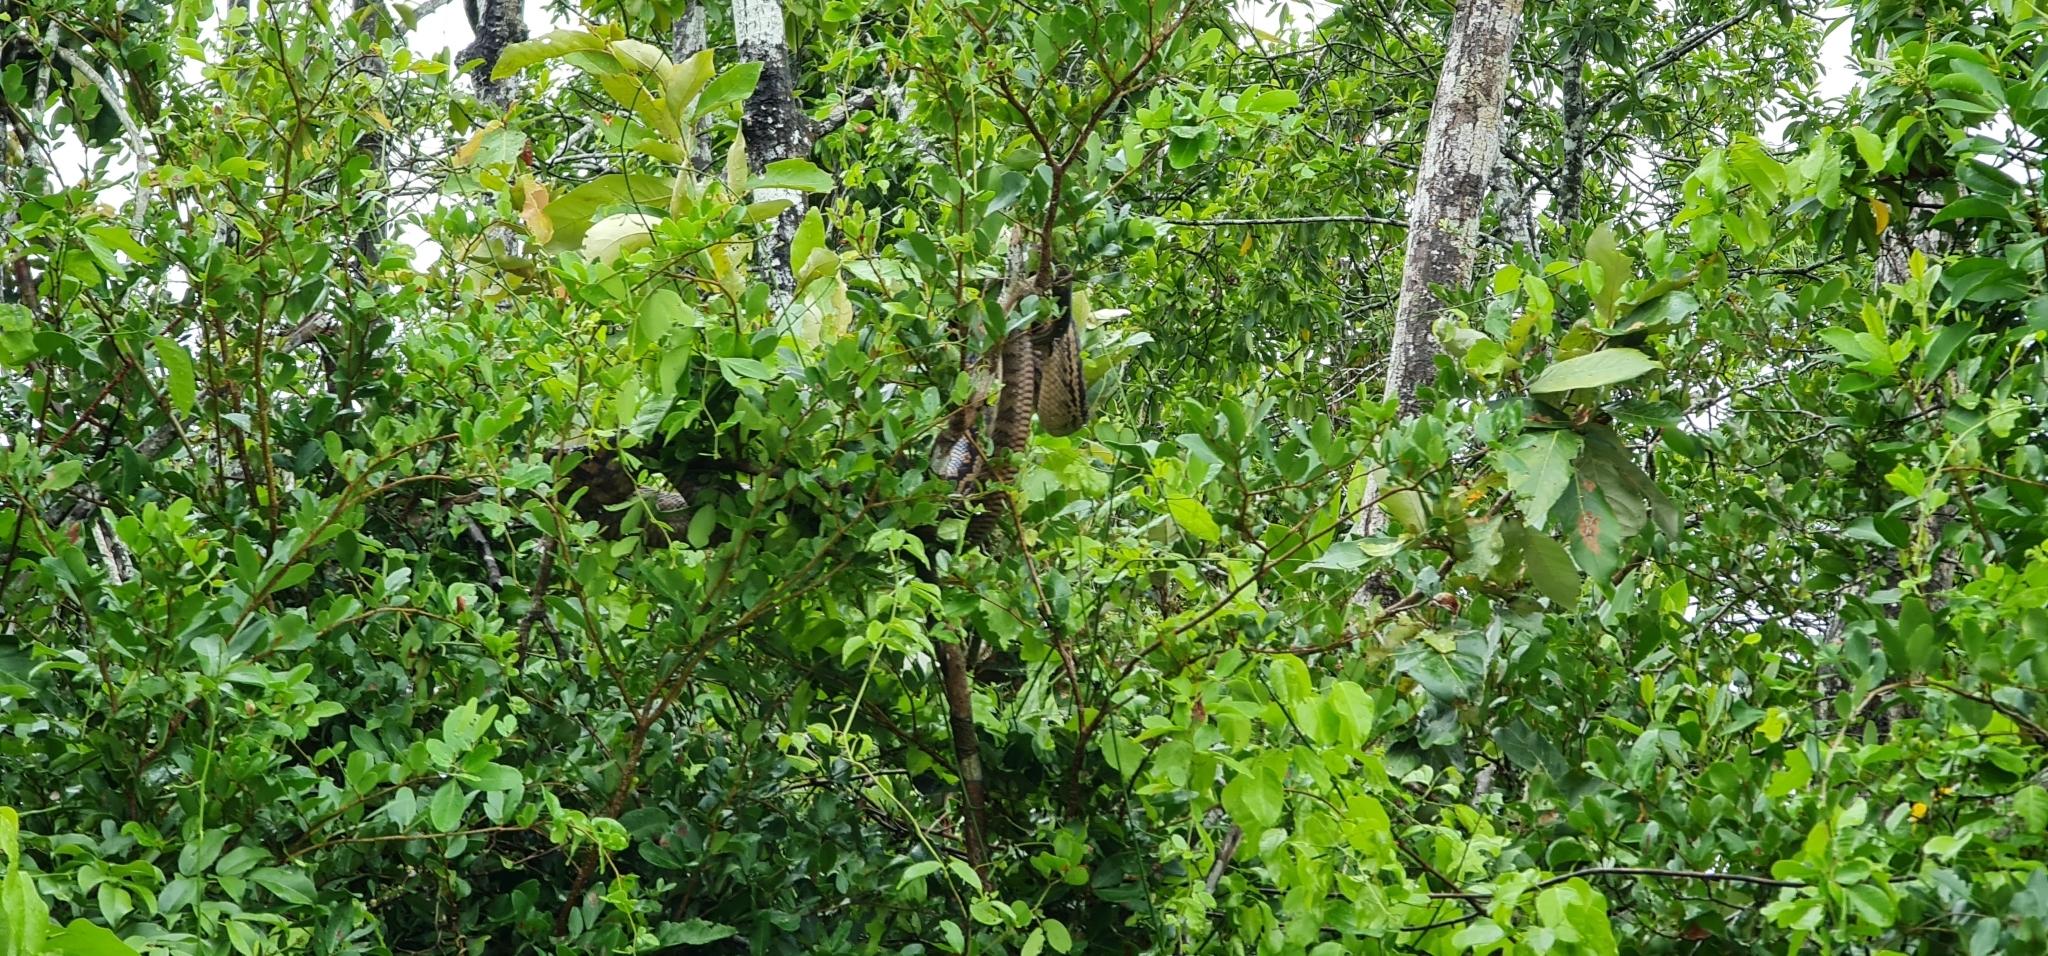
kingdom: Animalia
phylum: Chordata
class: Squamata
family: Pythonidae
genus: Simalia
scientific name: Simalia kinghorni
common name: Scrub python
